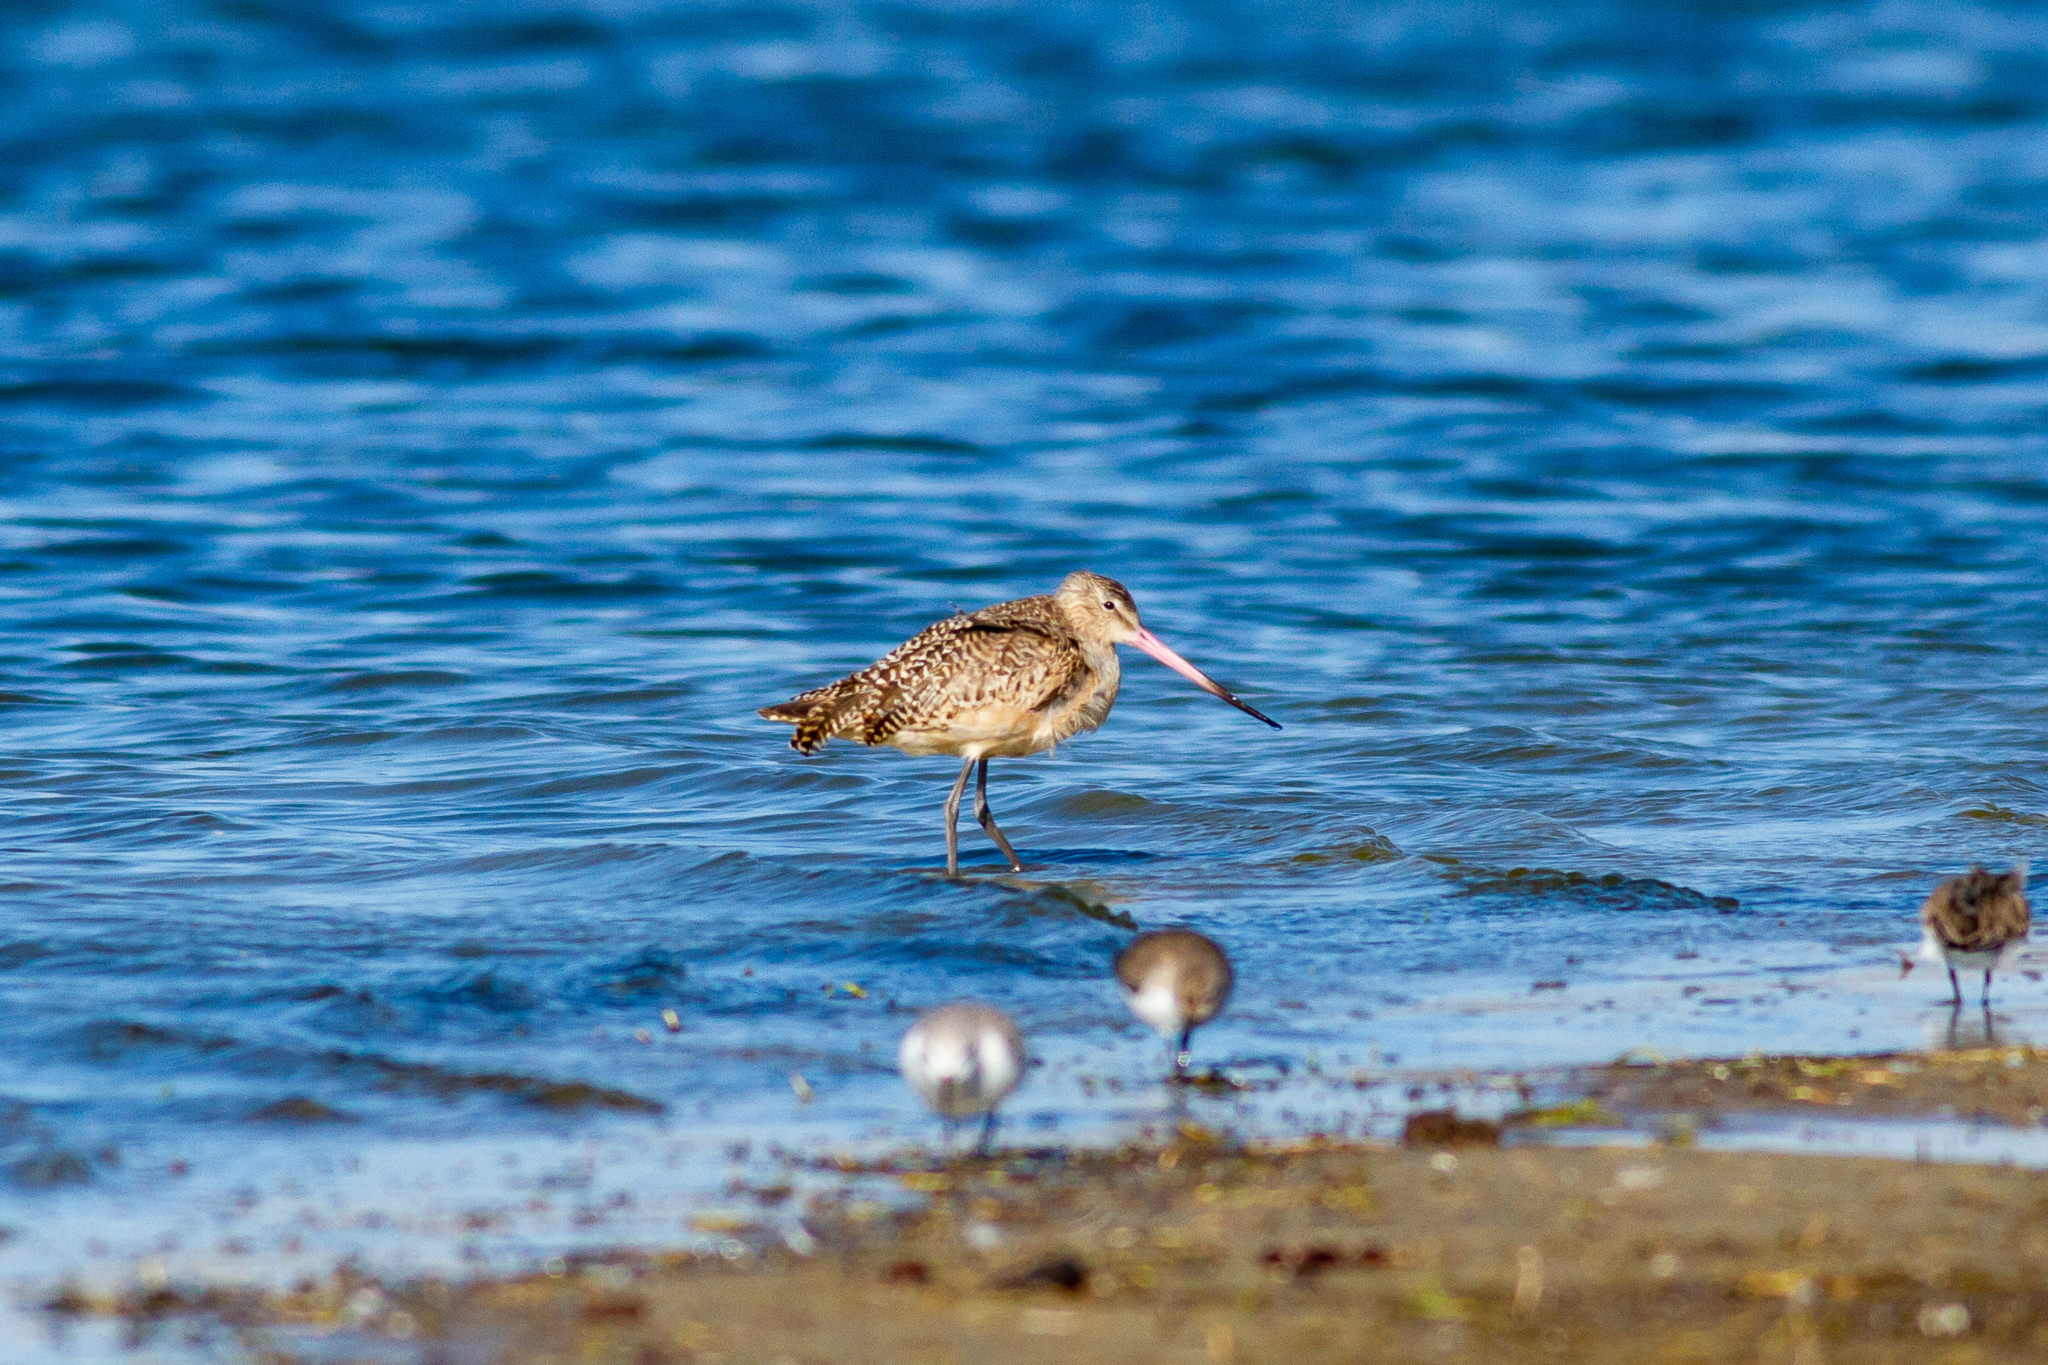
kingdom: Animalia
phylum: Chordata
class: Aves
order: Charadriiformes
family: Scolopacidae
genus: Limosa
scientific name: Limosa fedoa
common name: Marbled godwit
